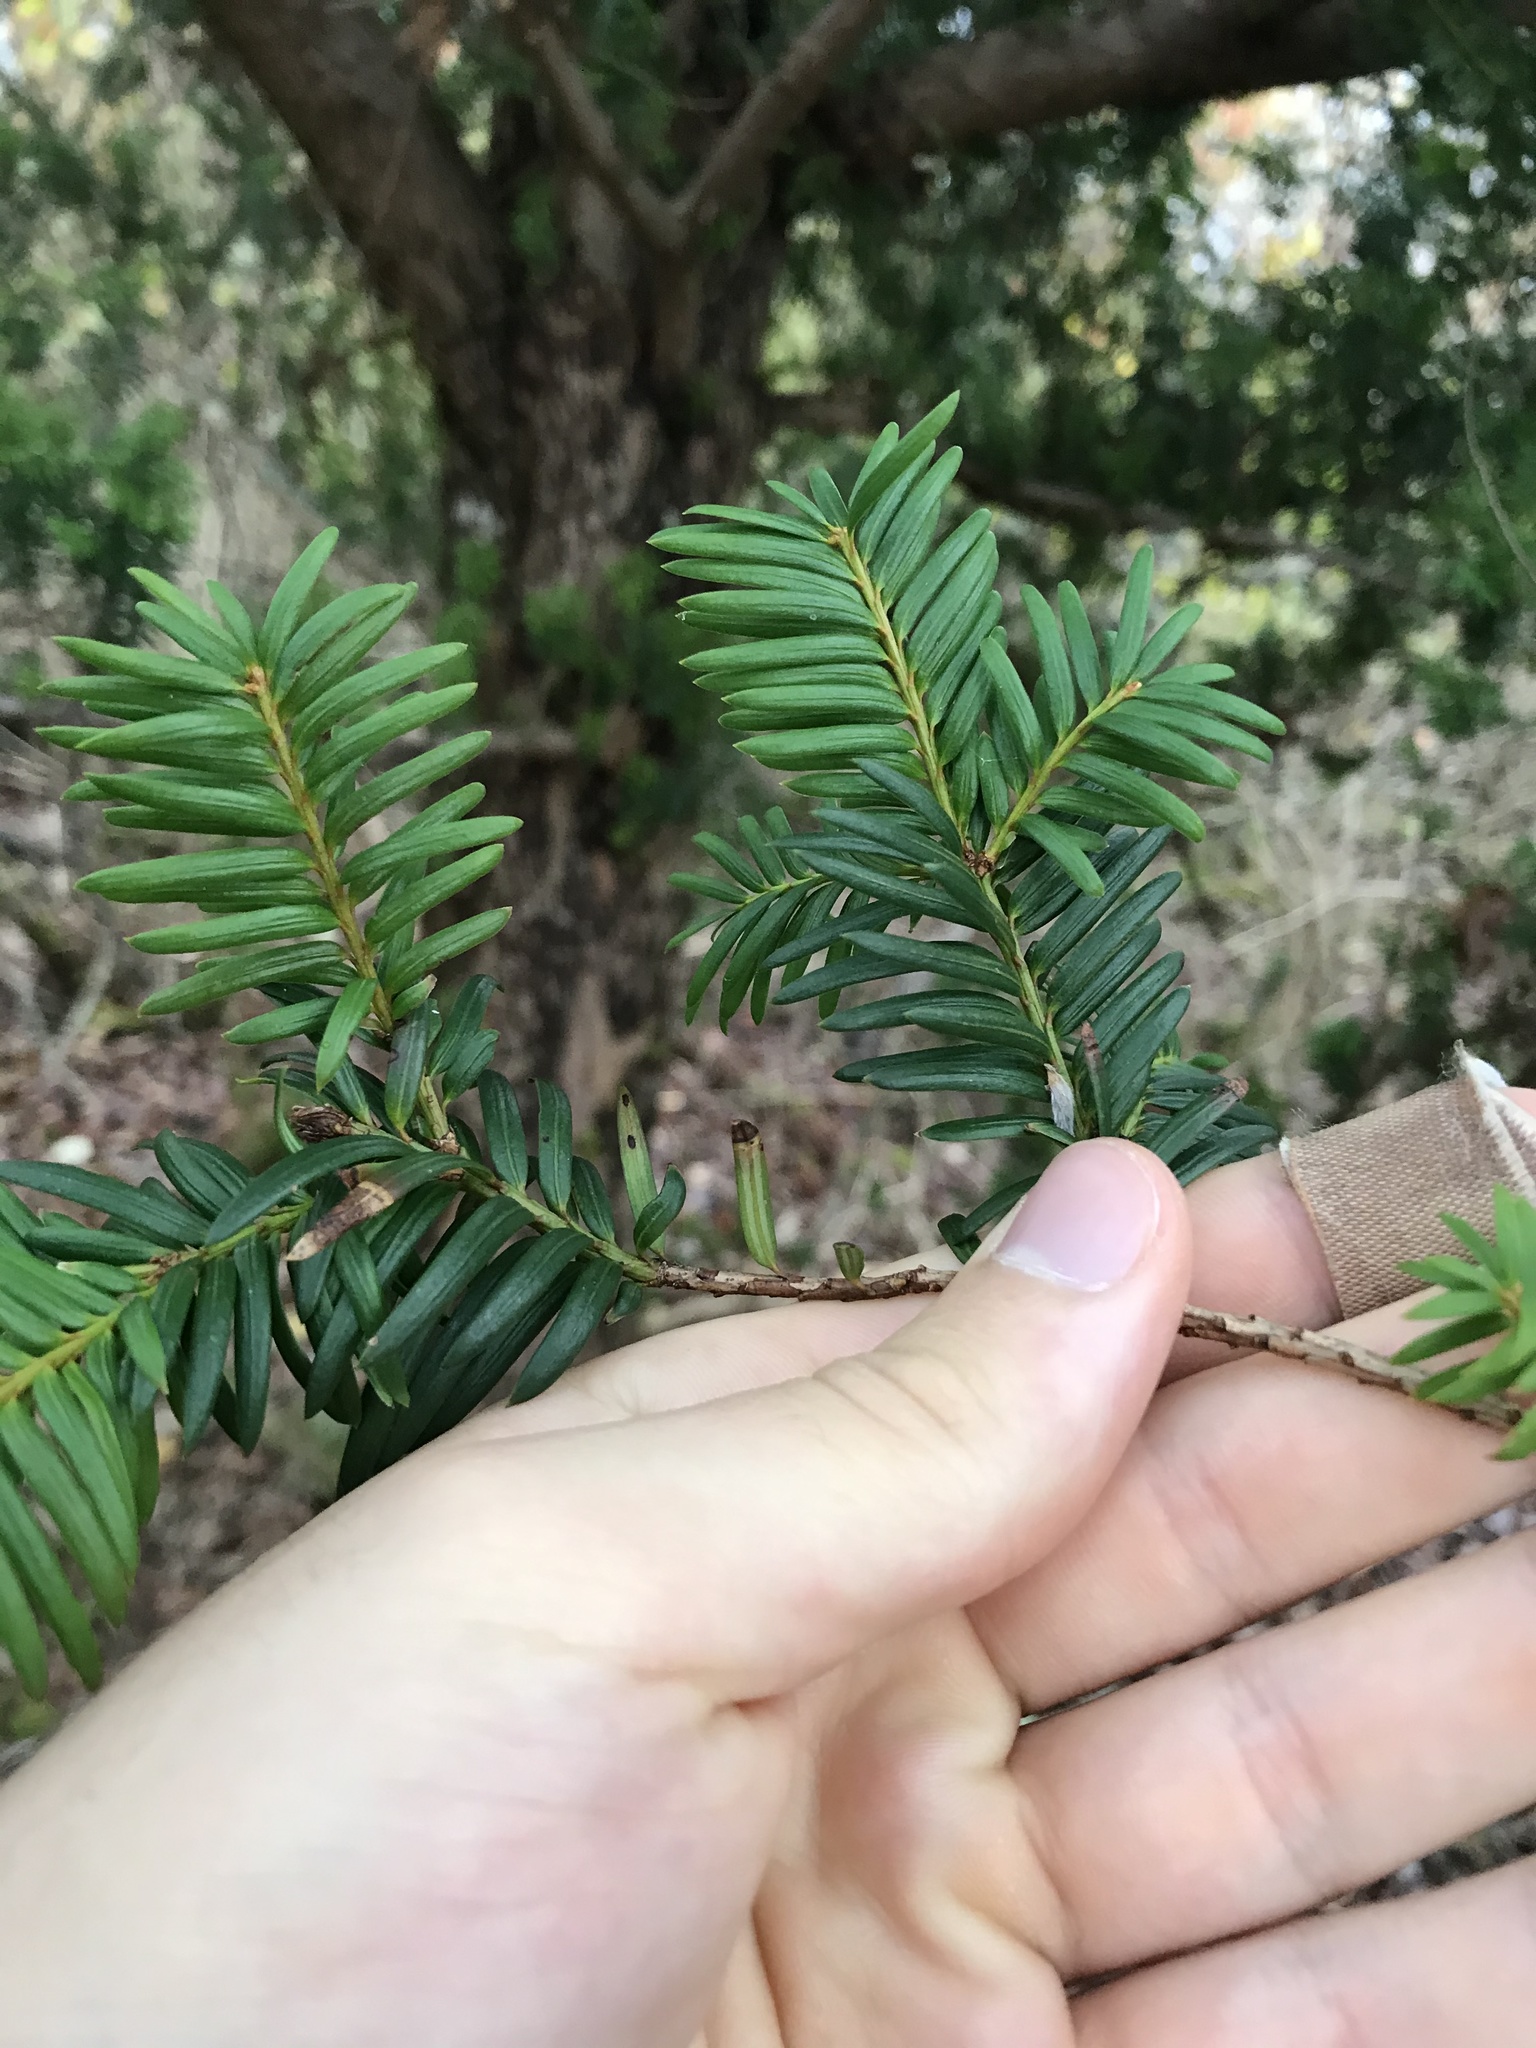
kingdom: Plantae
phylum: Tracheophyta
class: Pinopsida
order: Pinales
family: Taxaceae
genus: Taxus
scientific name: Taxus brevifolia
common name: Pacific yew
